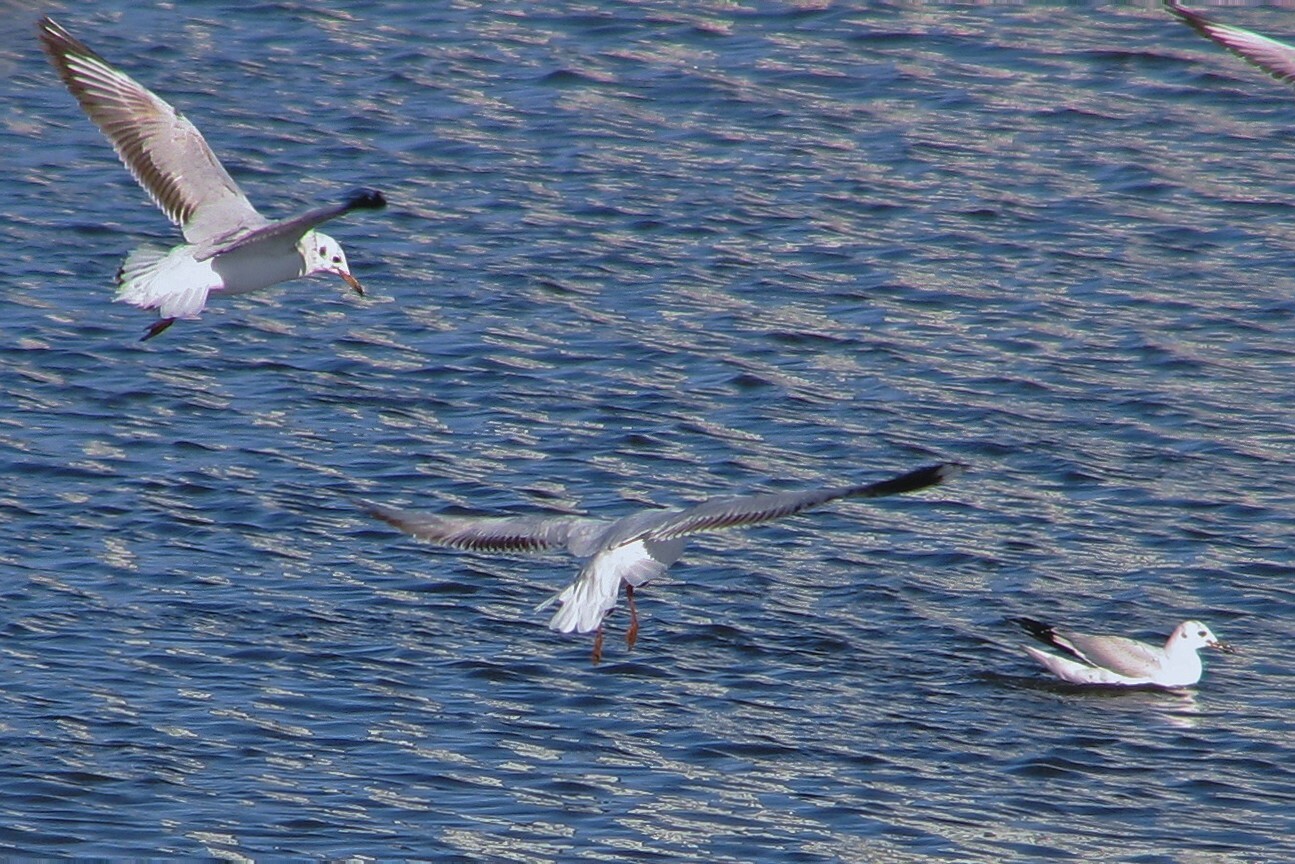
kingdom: Animalia
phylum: Chordata
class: Aves
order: Charadriiformes
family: Laridae
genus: Chroicocephalus
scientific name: Chroicocephalus maculipennis
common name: Brown-hooded gull
